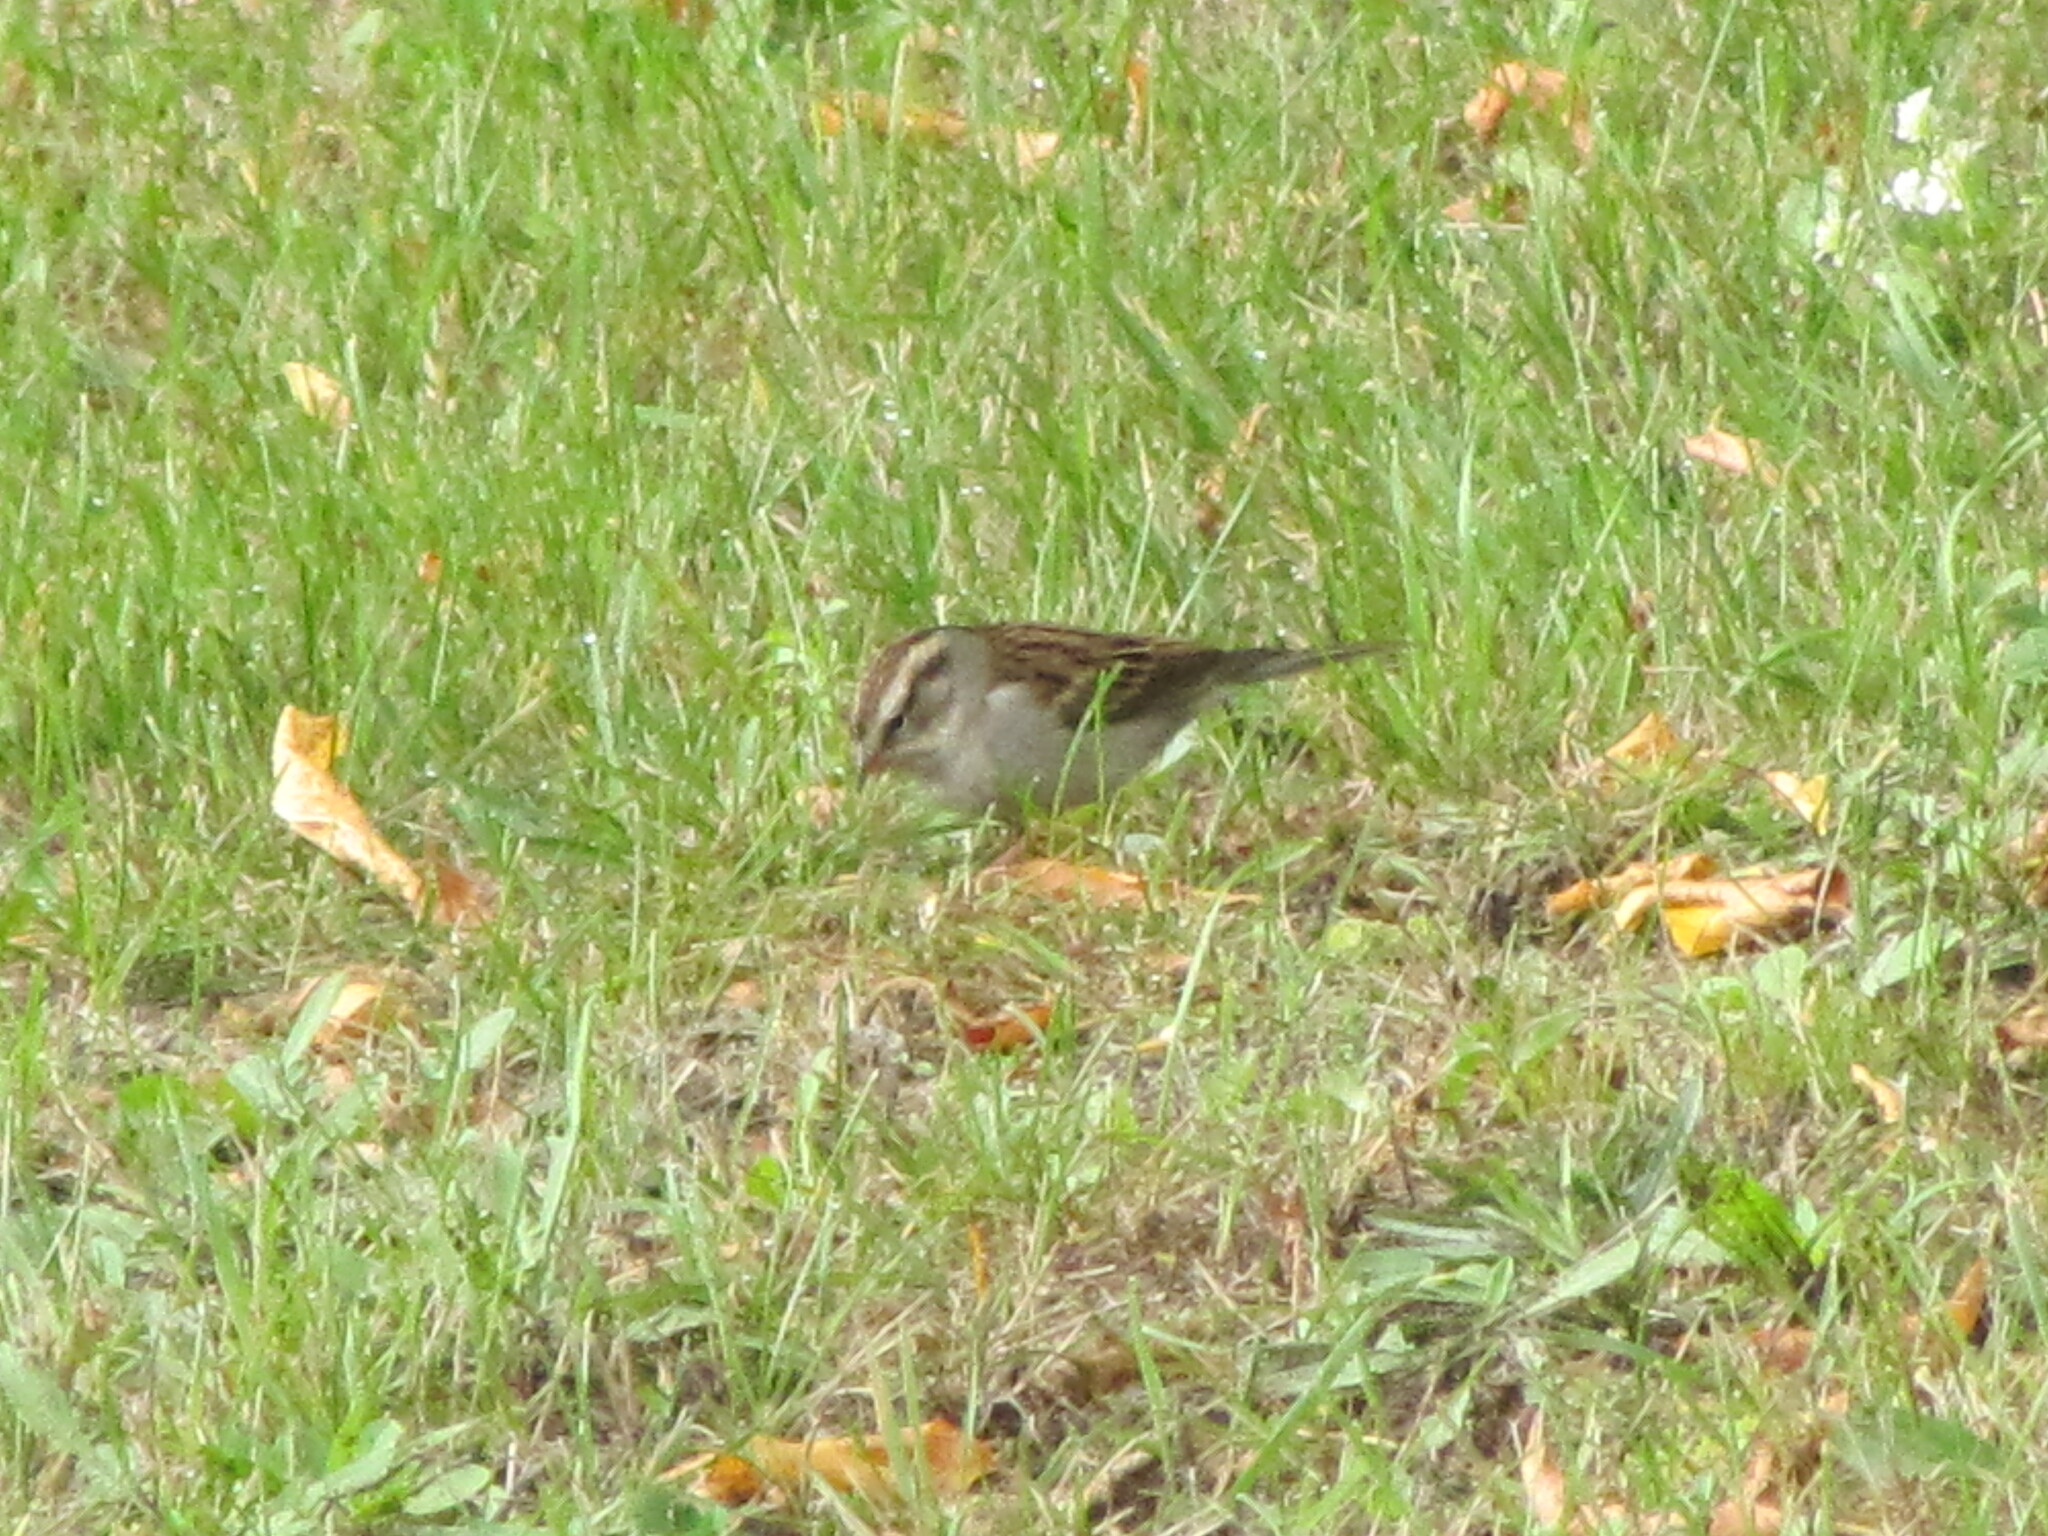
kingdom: Animalia
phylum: Chordata
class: Aves
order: Passeriformes
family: Passerellidae
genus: Spizella
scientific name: Spizella passerina
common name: Chipping sparrow
